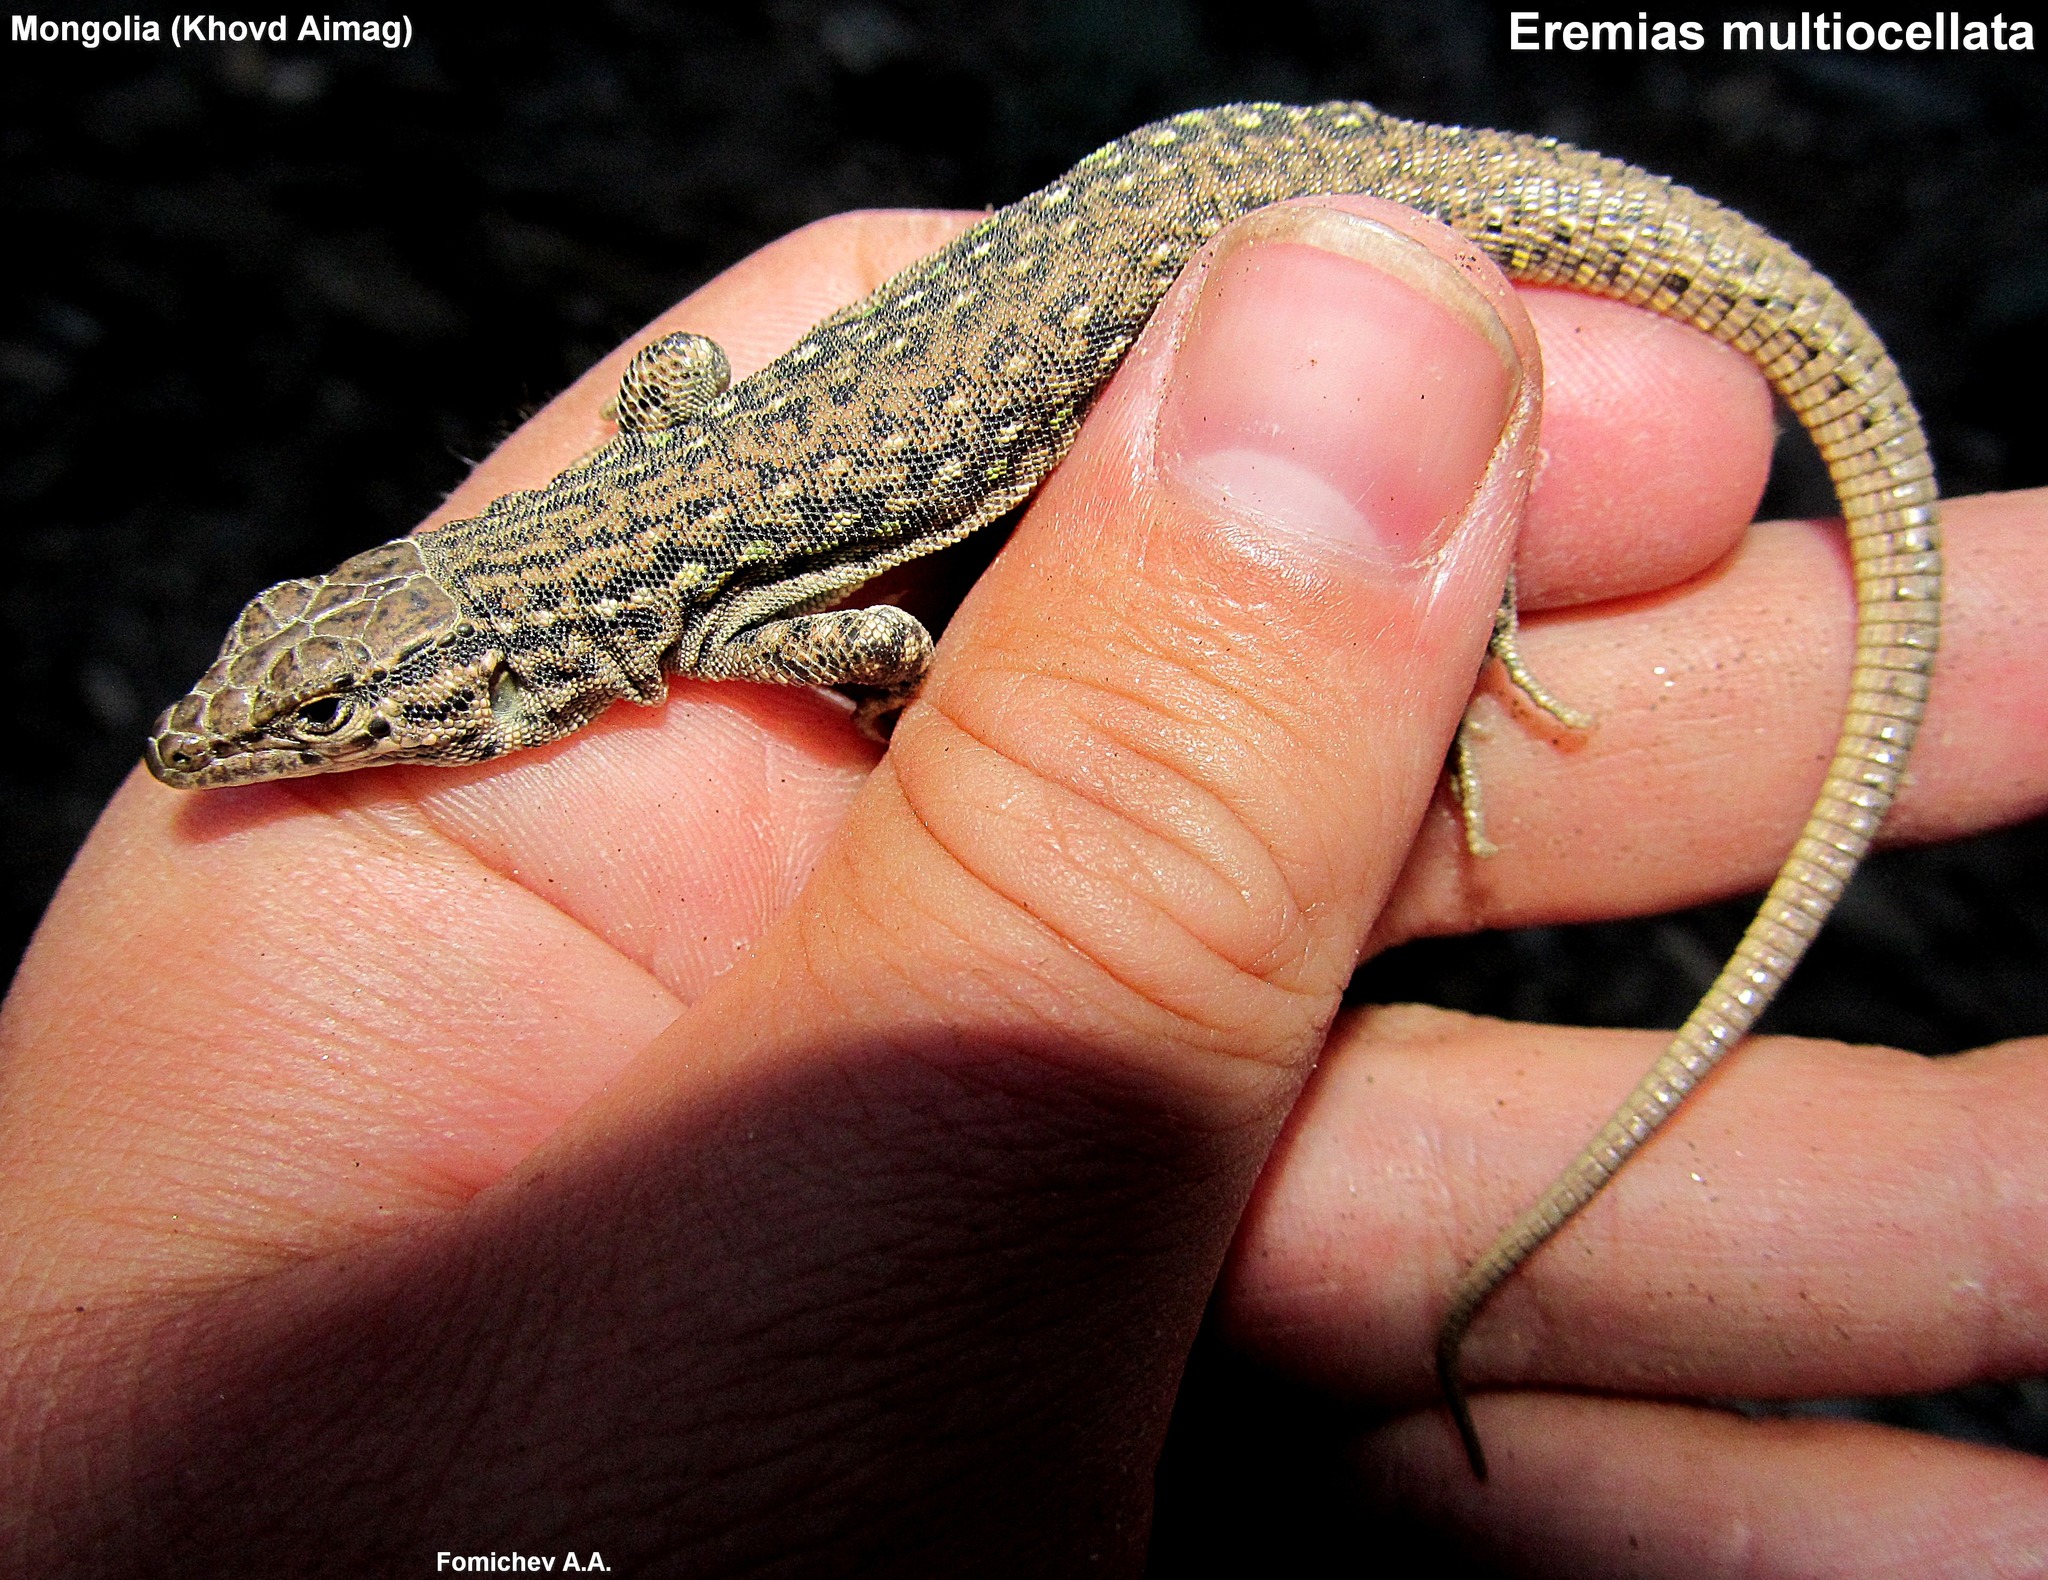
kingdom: Animalia
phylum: Chordata
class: Squamata
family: Lacertidae
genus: Eremias
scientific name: Eremias multiocellata
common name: Multi-ocellated racerunner
